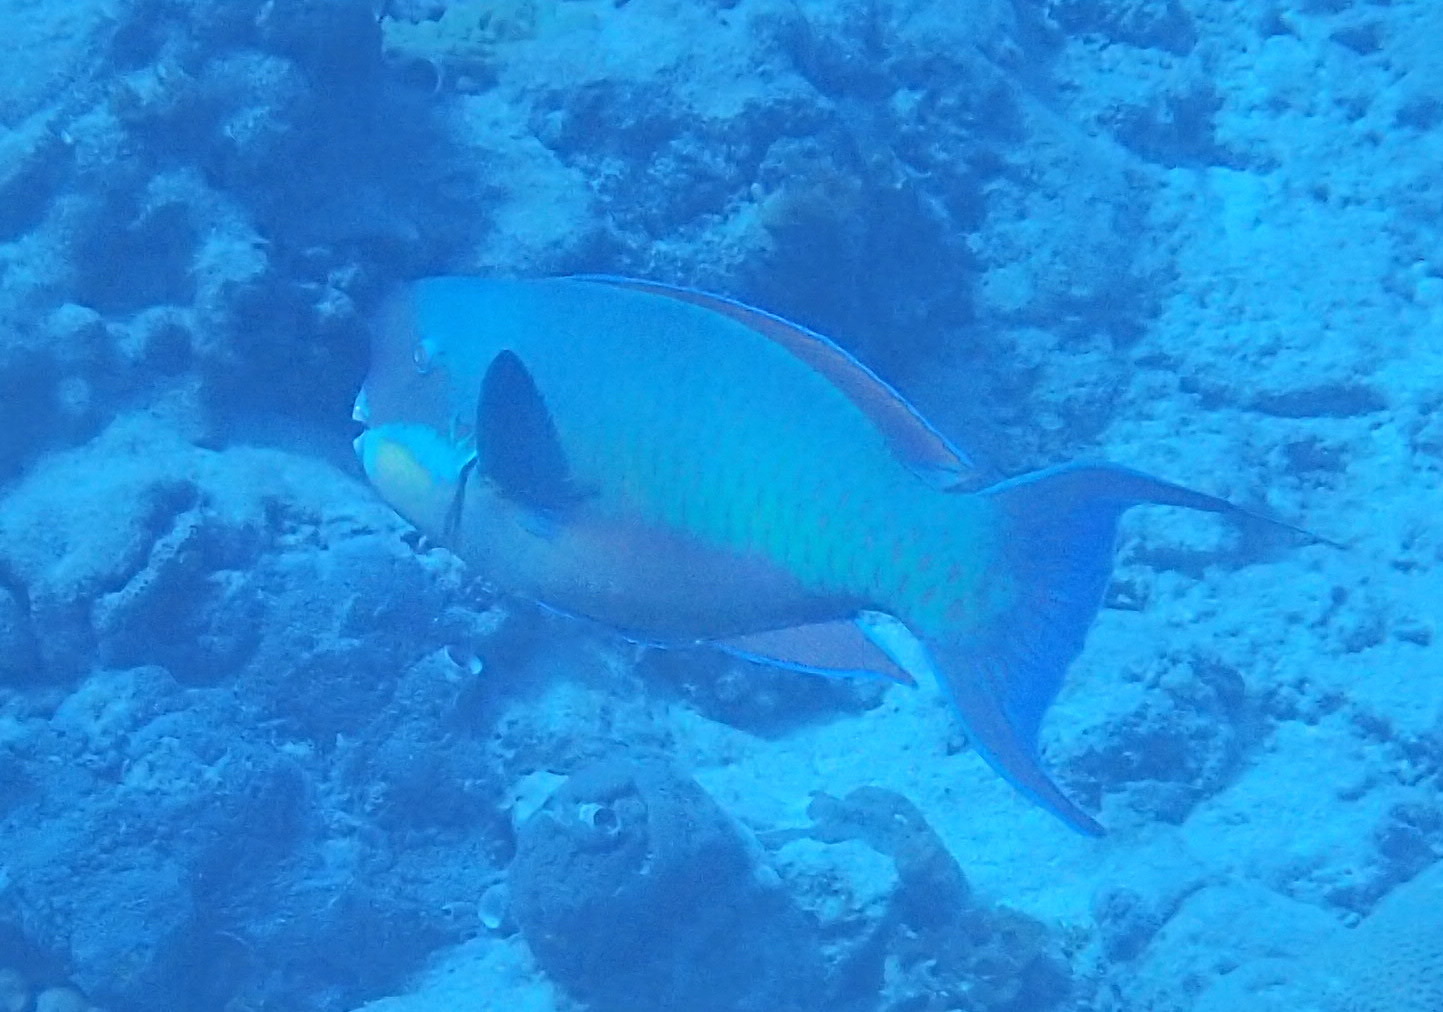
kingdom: Animalia
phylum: Chordata
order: Perciformes
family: Scaridae
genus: Chlorurus
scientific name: Chlorurus microrhinos
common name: Steephead parrotfish
